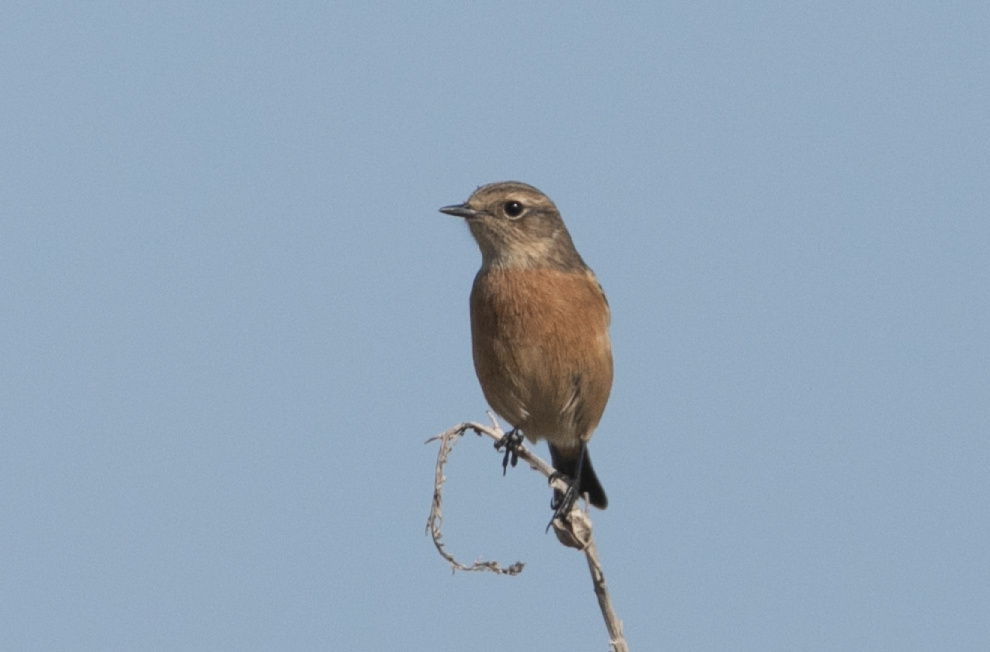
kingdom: Animalia
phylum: Chordata
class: Aves
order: Passeriformes
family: Muscicapidae
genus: Saxicola
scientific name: Saxicola rubicola
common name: European stonechat
